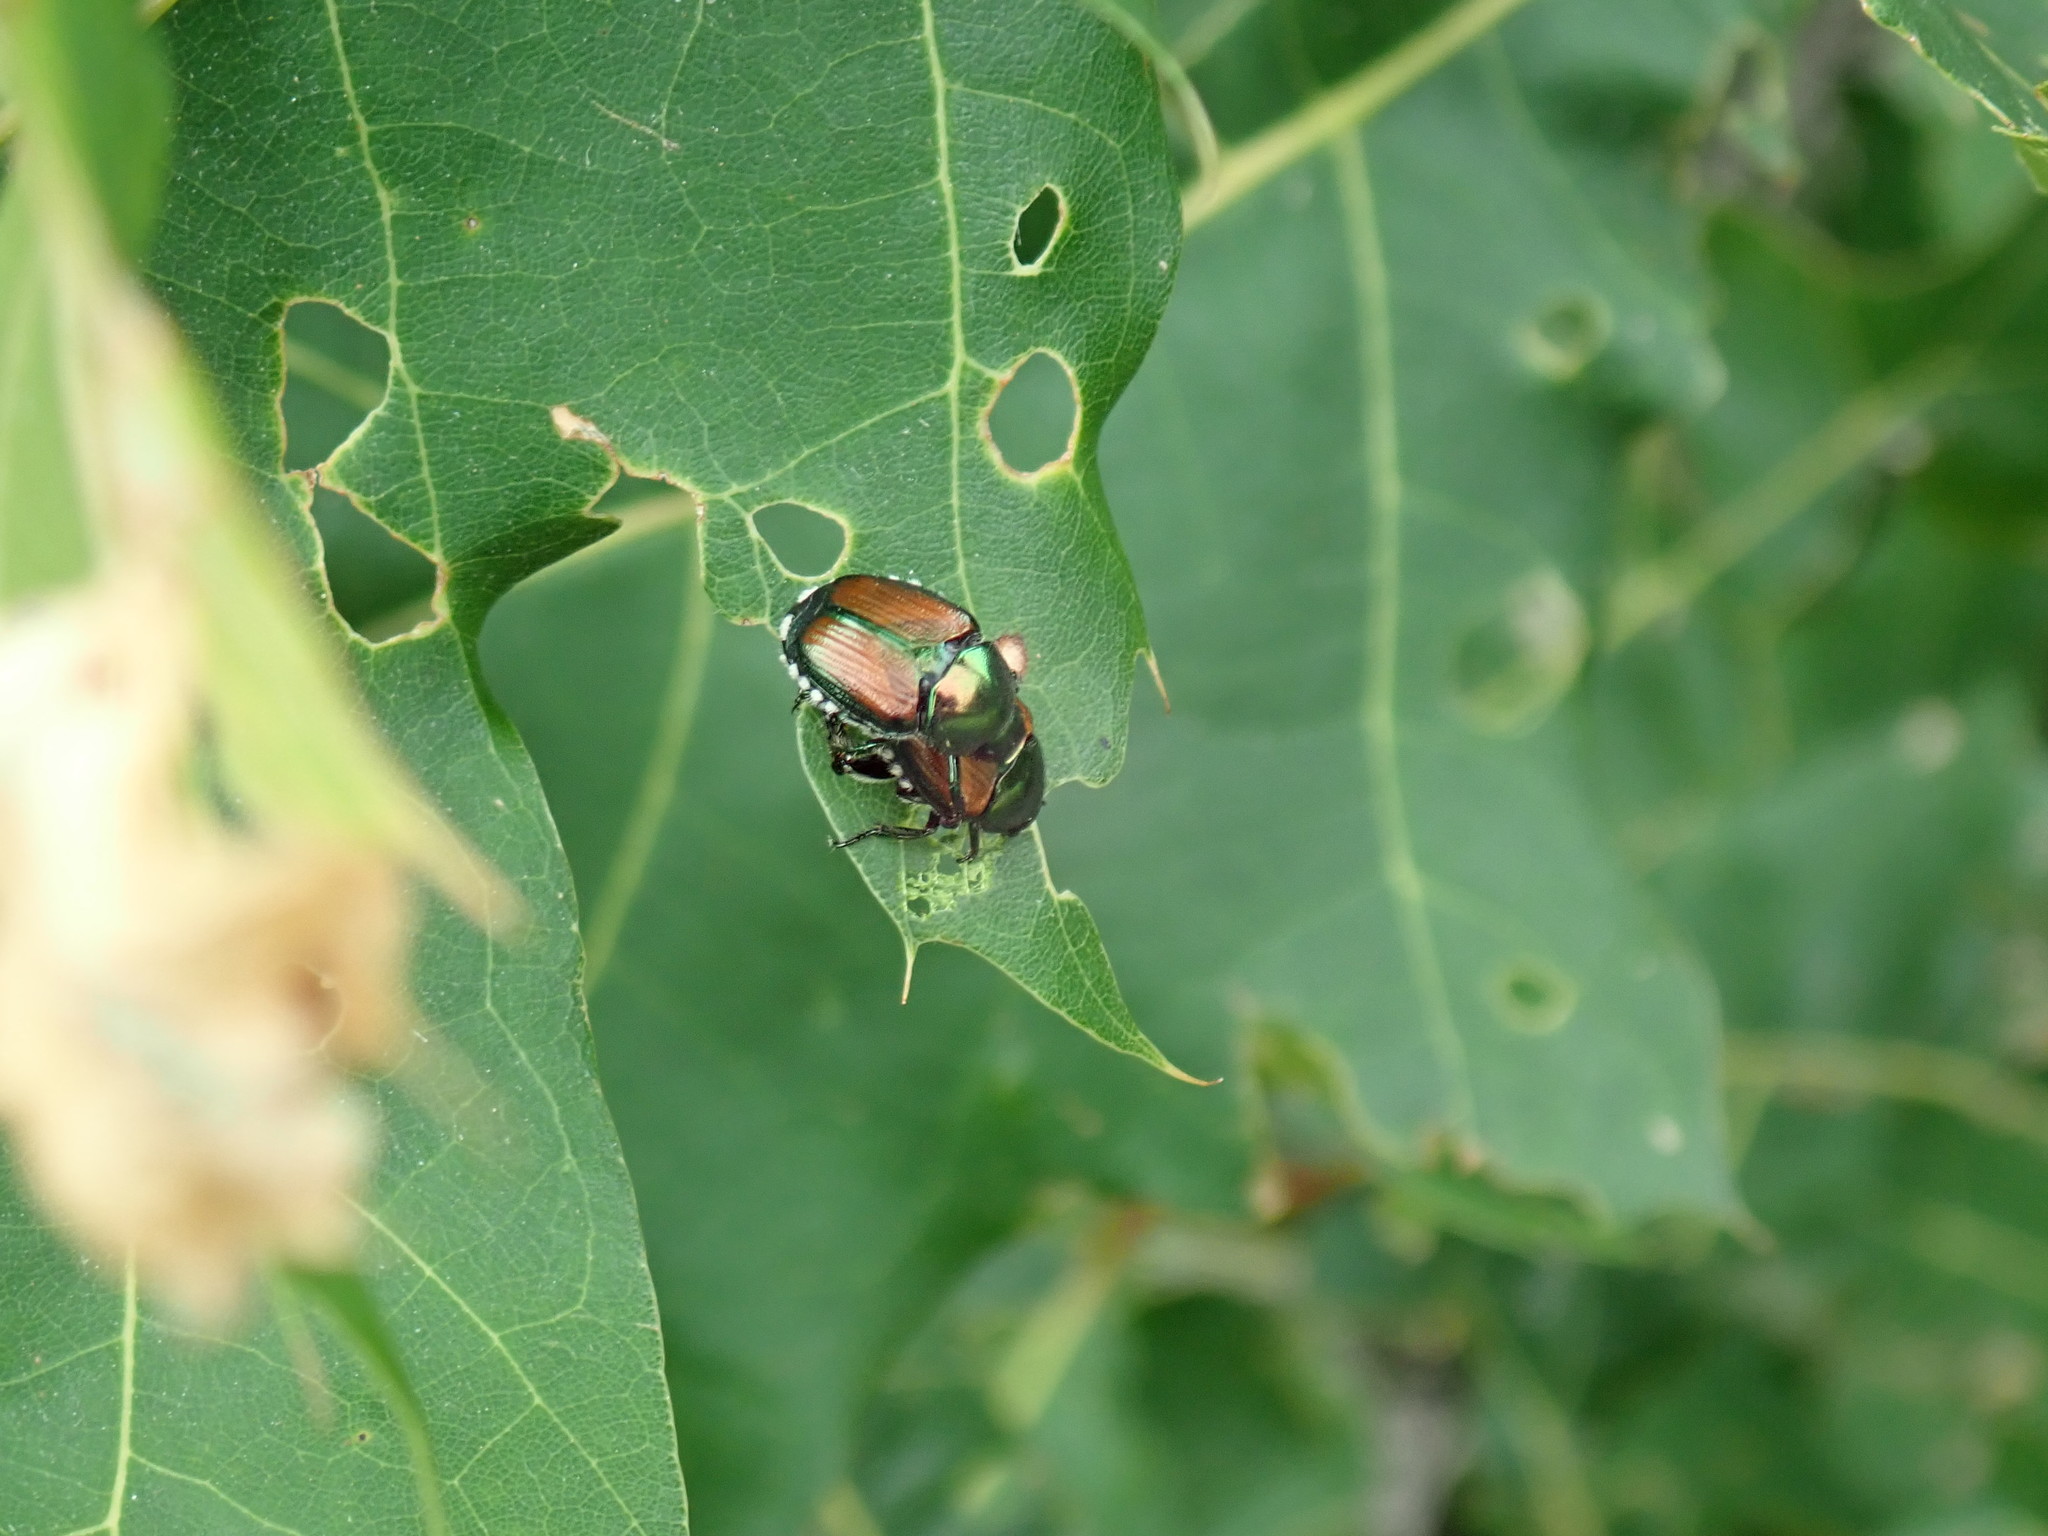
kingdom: Animalia
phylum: Arthropoda
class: Insecta
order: Coleoptera
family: Scarabaeidae
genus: Popillia
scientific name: Popillia japonica
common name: Japanese beetle
